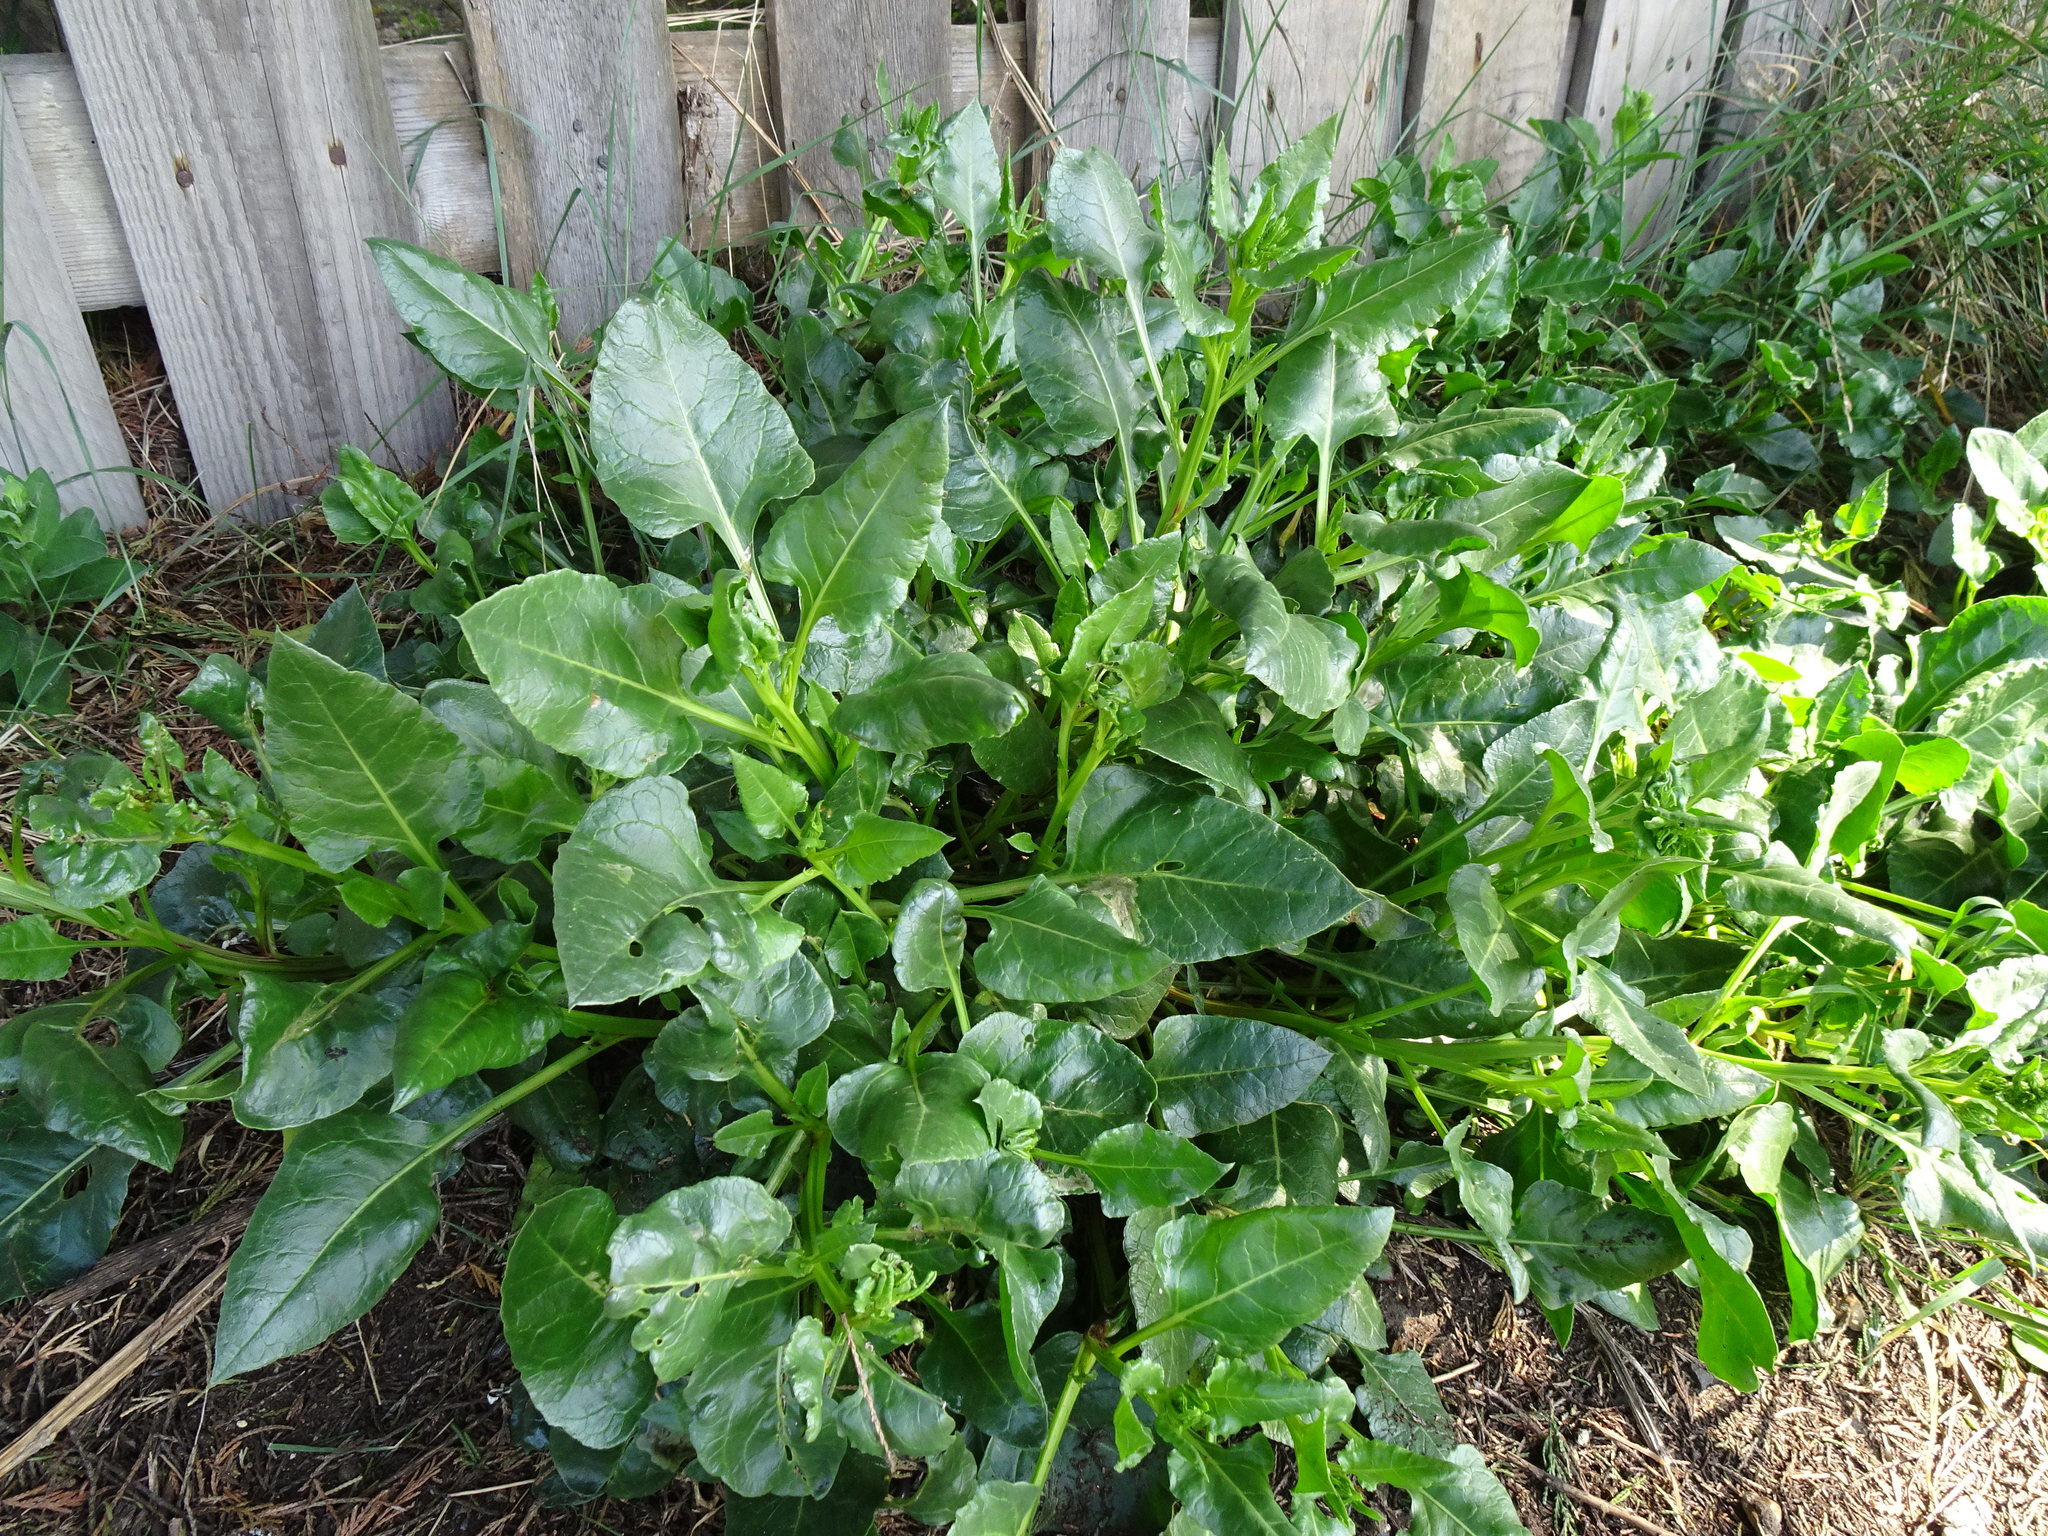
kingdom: Plantae
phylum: Tracheophyta
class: Magnoliopsida
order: Caryophyllales
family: Amaranthaceae
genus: Beta
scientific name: Beta vulgaris
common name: Beet
